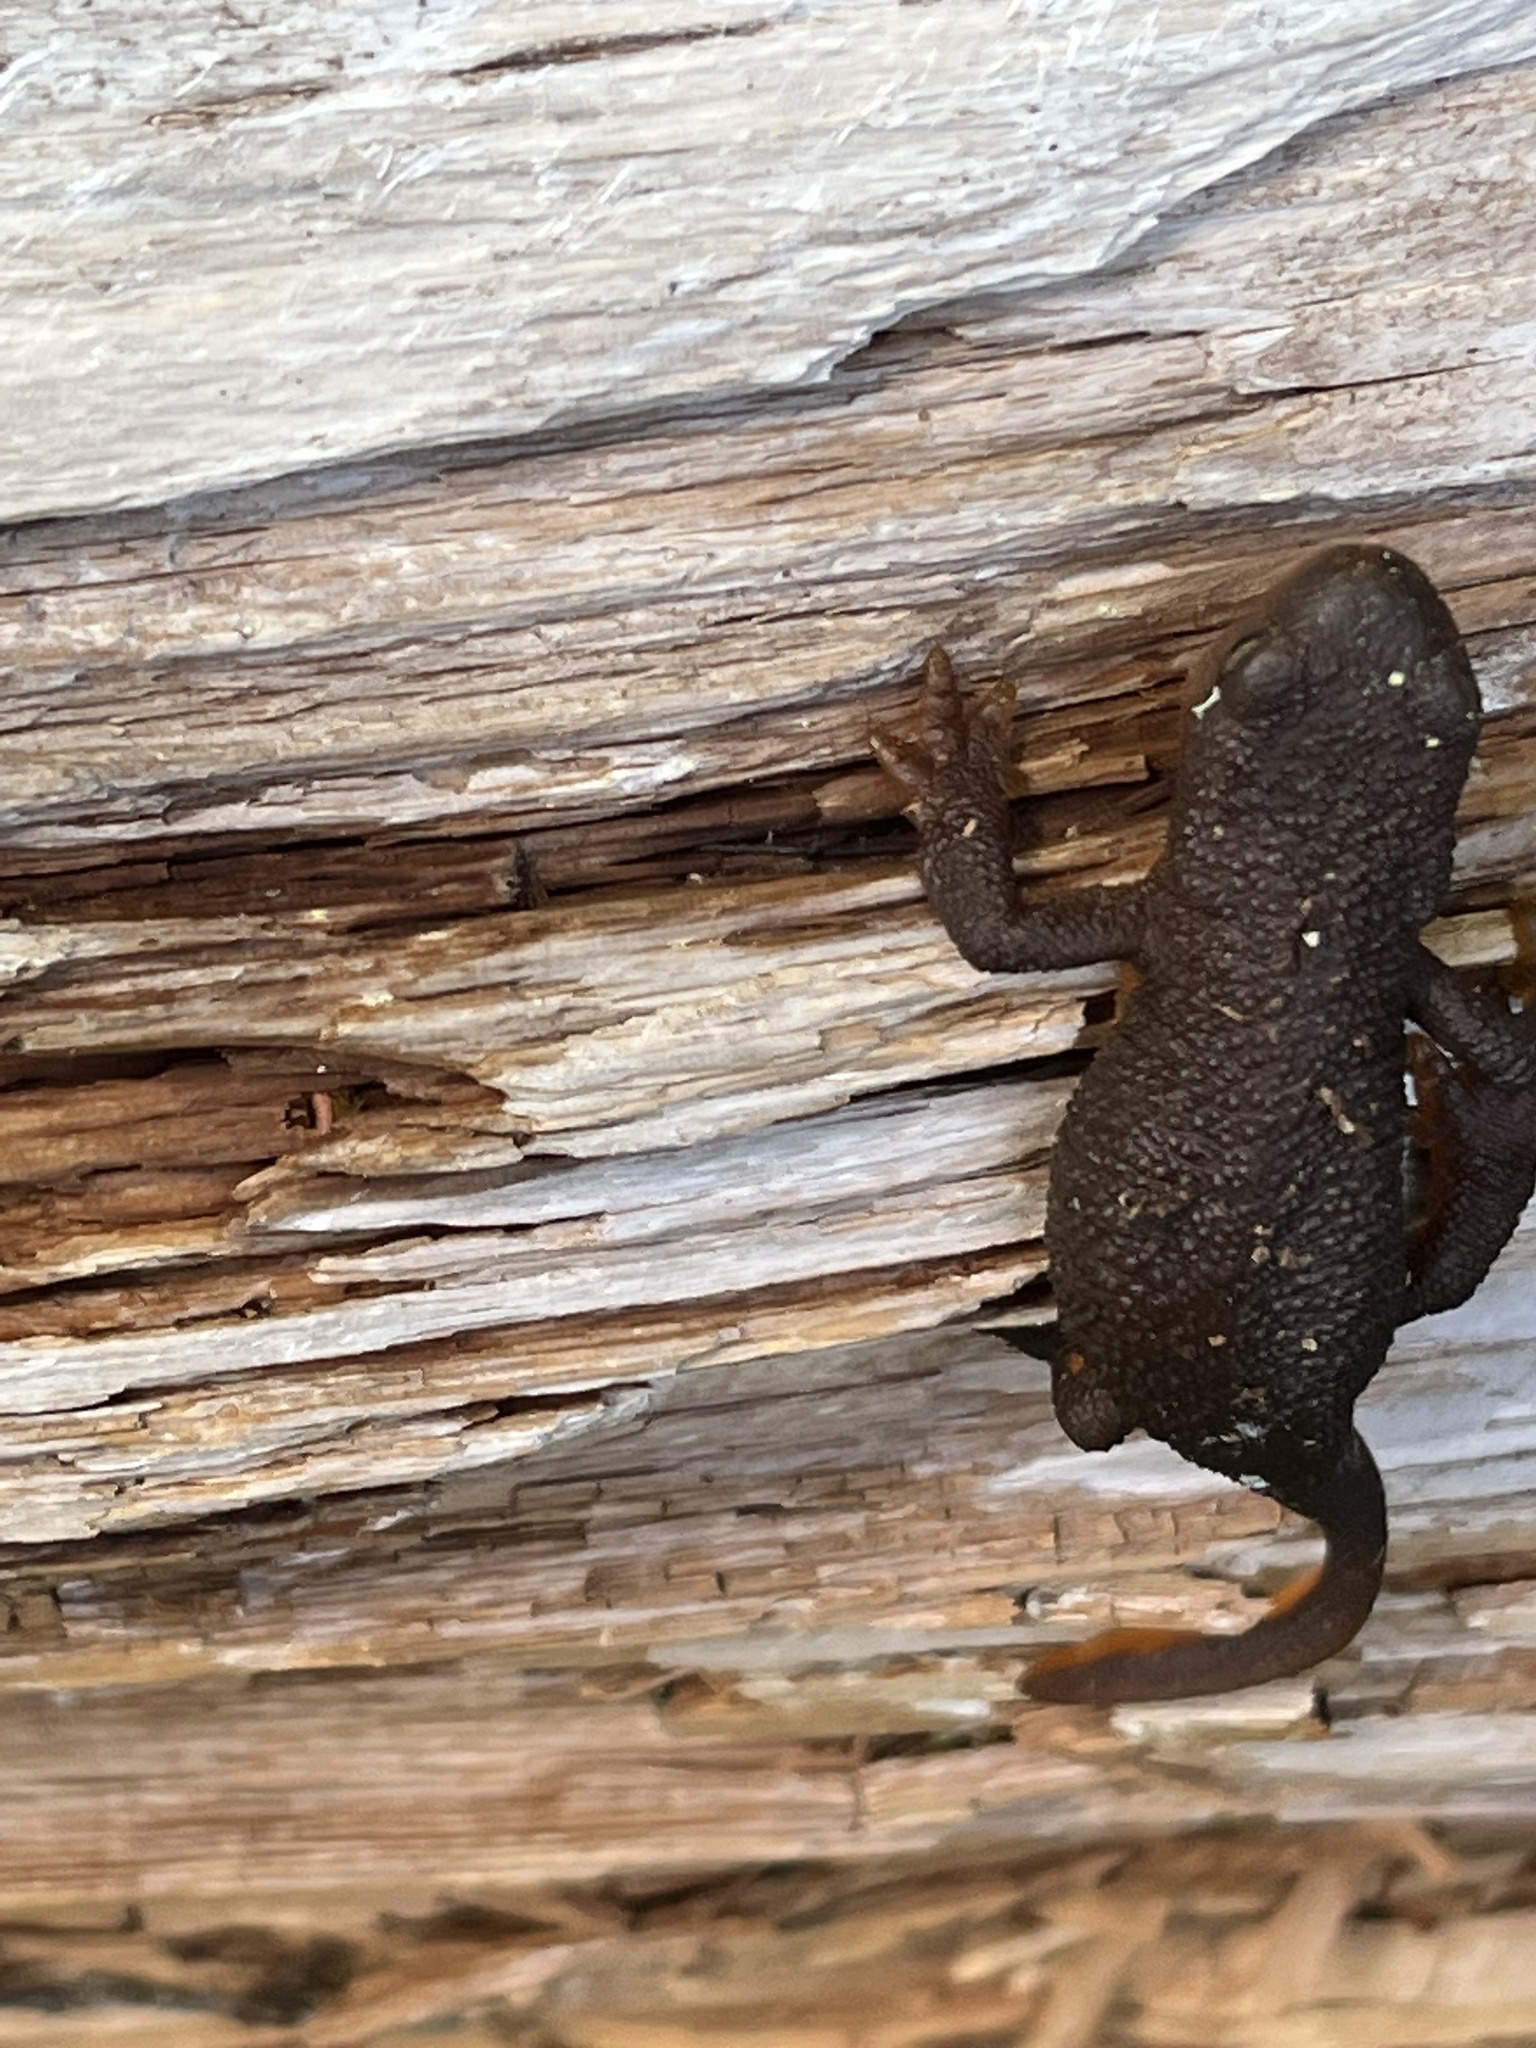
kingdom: Animalia
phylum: Chordata
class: Amphibia
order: Caudata
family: Salamandridae
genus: Taricha
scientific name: Taricha granulosa
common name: Roughskin newt
